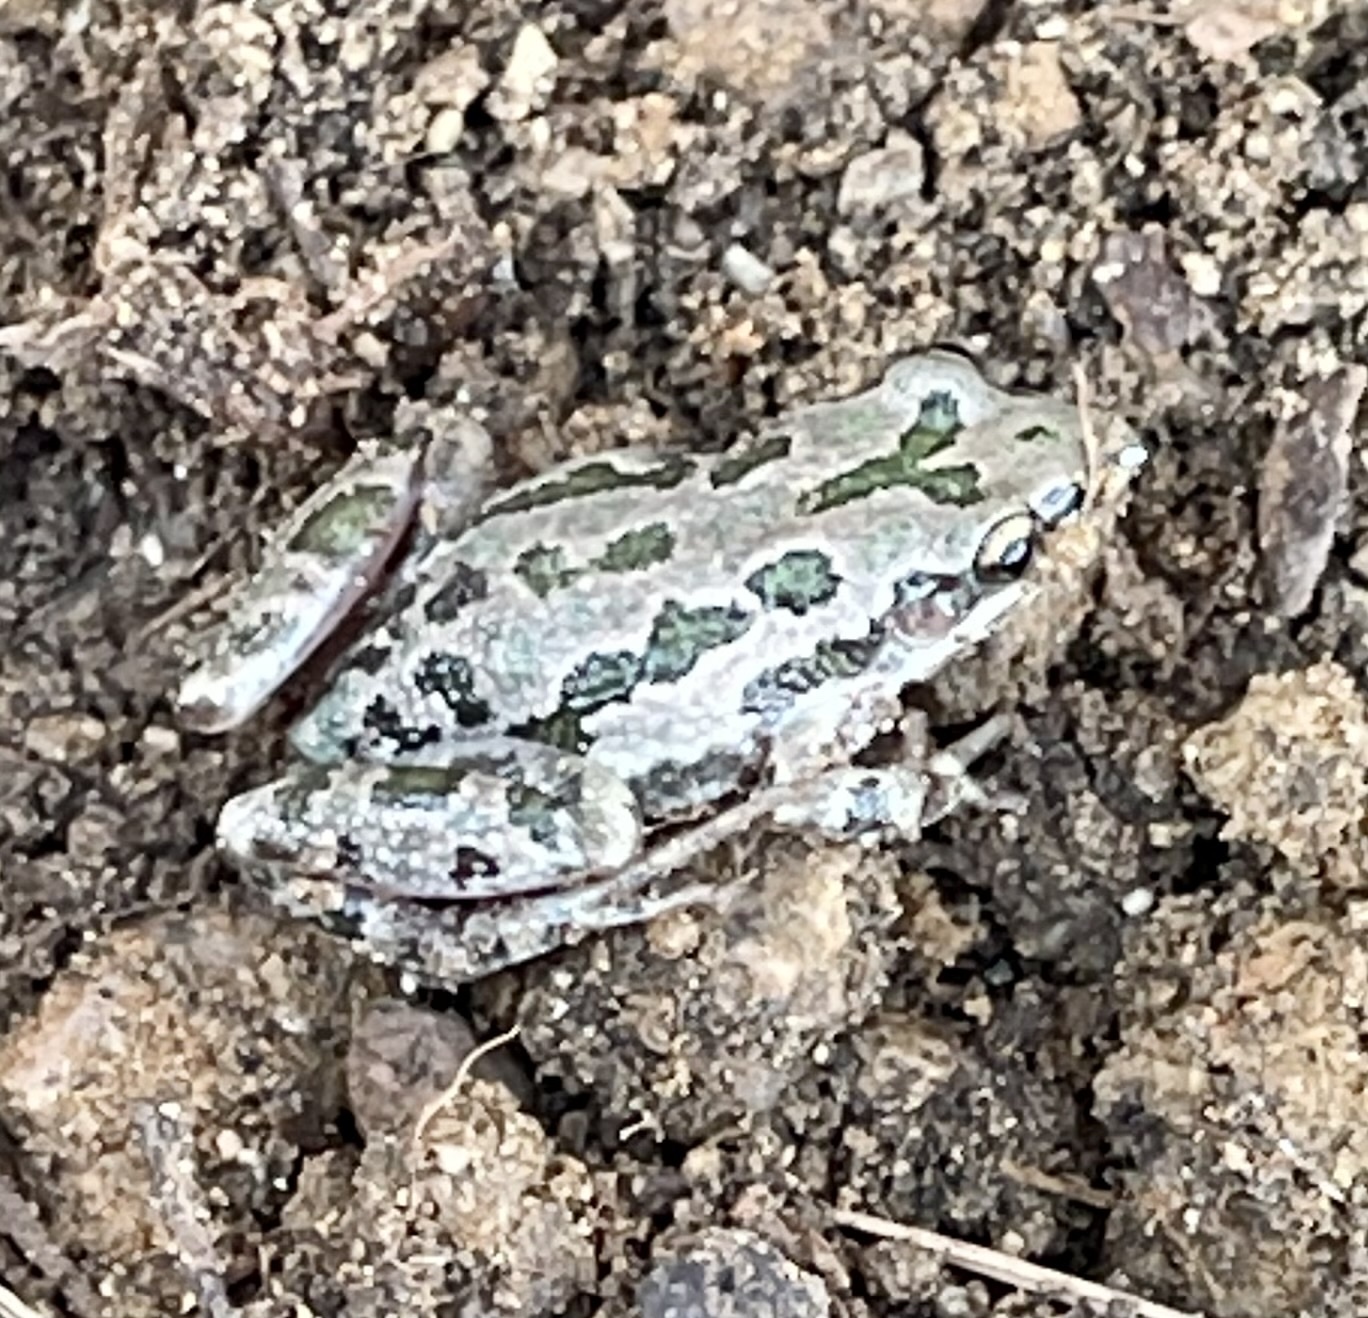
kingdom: Animalia
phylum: Chordata
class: Amphibia
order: Anura
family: Hylidae
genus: Pseudacris
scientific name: Pseudacris clarkii
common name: Spotted chorus frog
